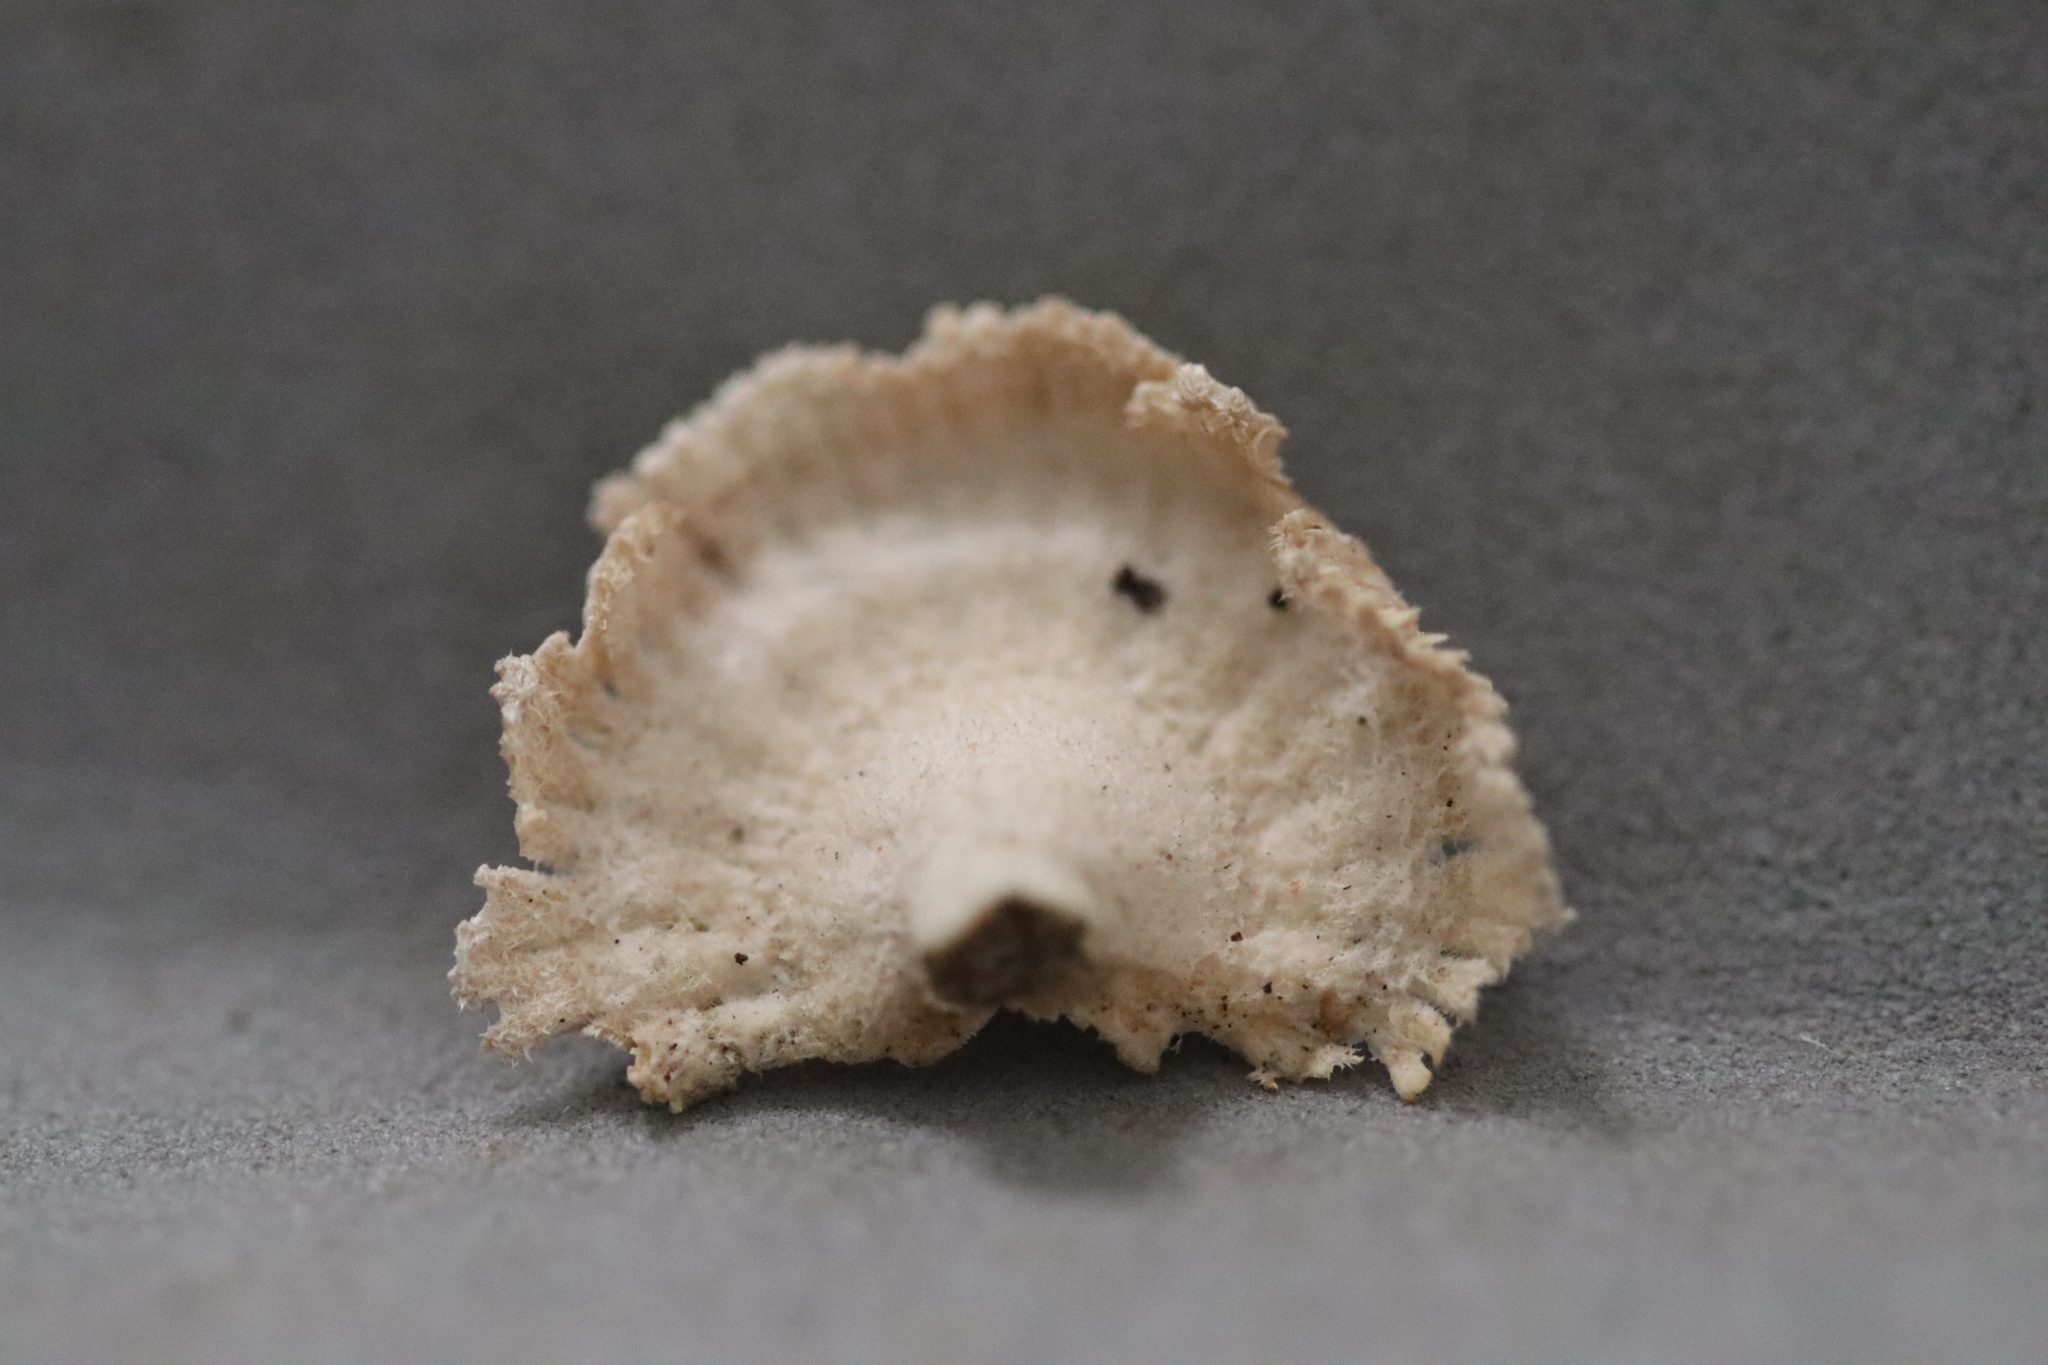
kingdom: Fungi
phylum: Basidiomycota
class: Agaricomycetes
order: Agaricales
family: Schizophyllaceae
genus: Schizophyllum
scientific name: Schizophyllum commune
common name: Common porecrust
